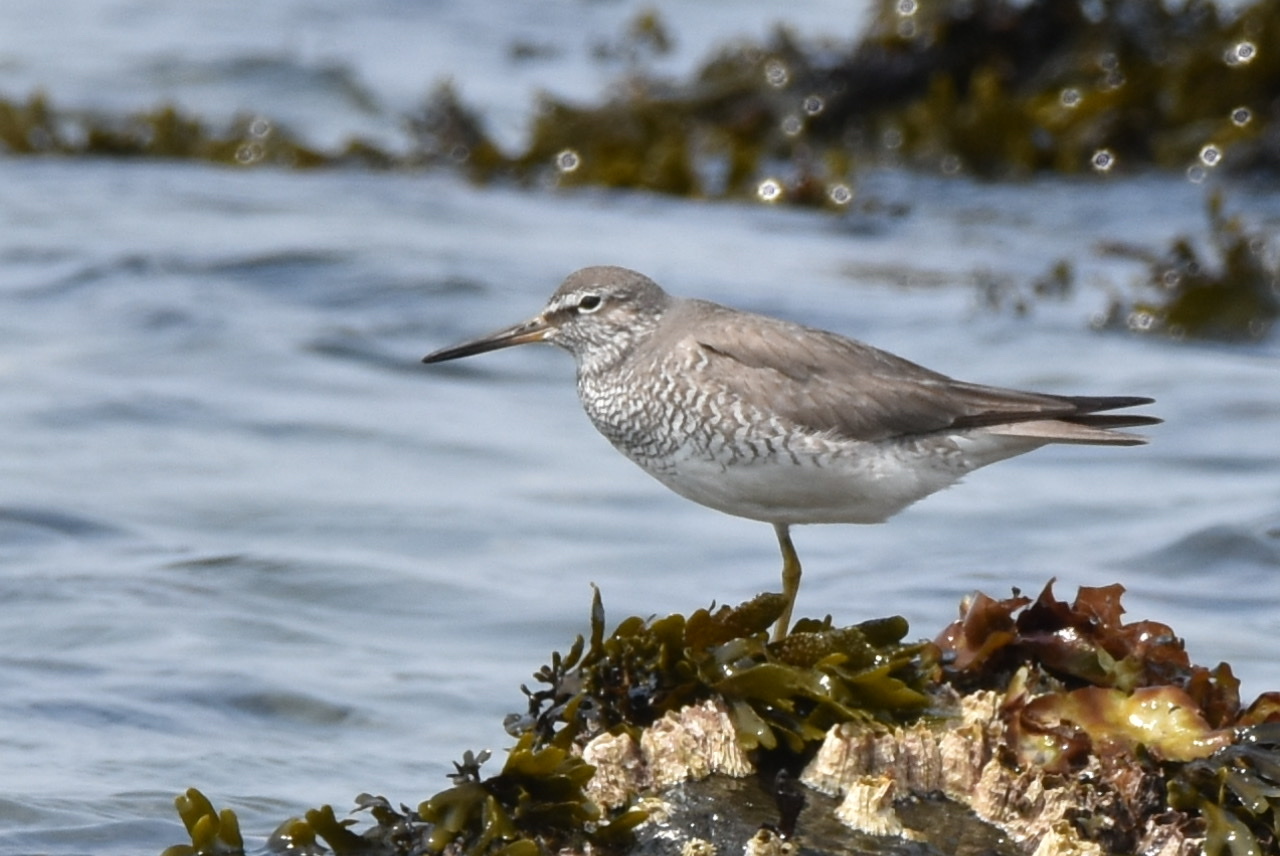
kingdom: Animalia
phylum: Chordata
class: Aves
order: Charadriiformes
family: Scolopacidae
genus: Tringa
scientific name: Tringa brevipes
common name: Grey-tailed tattler
